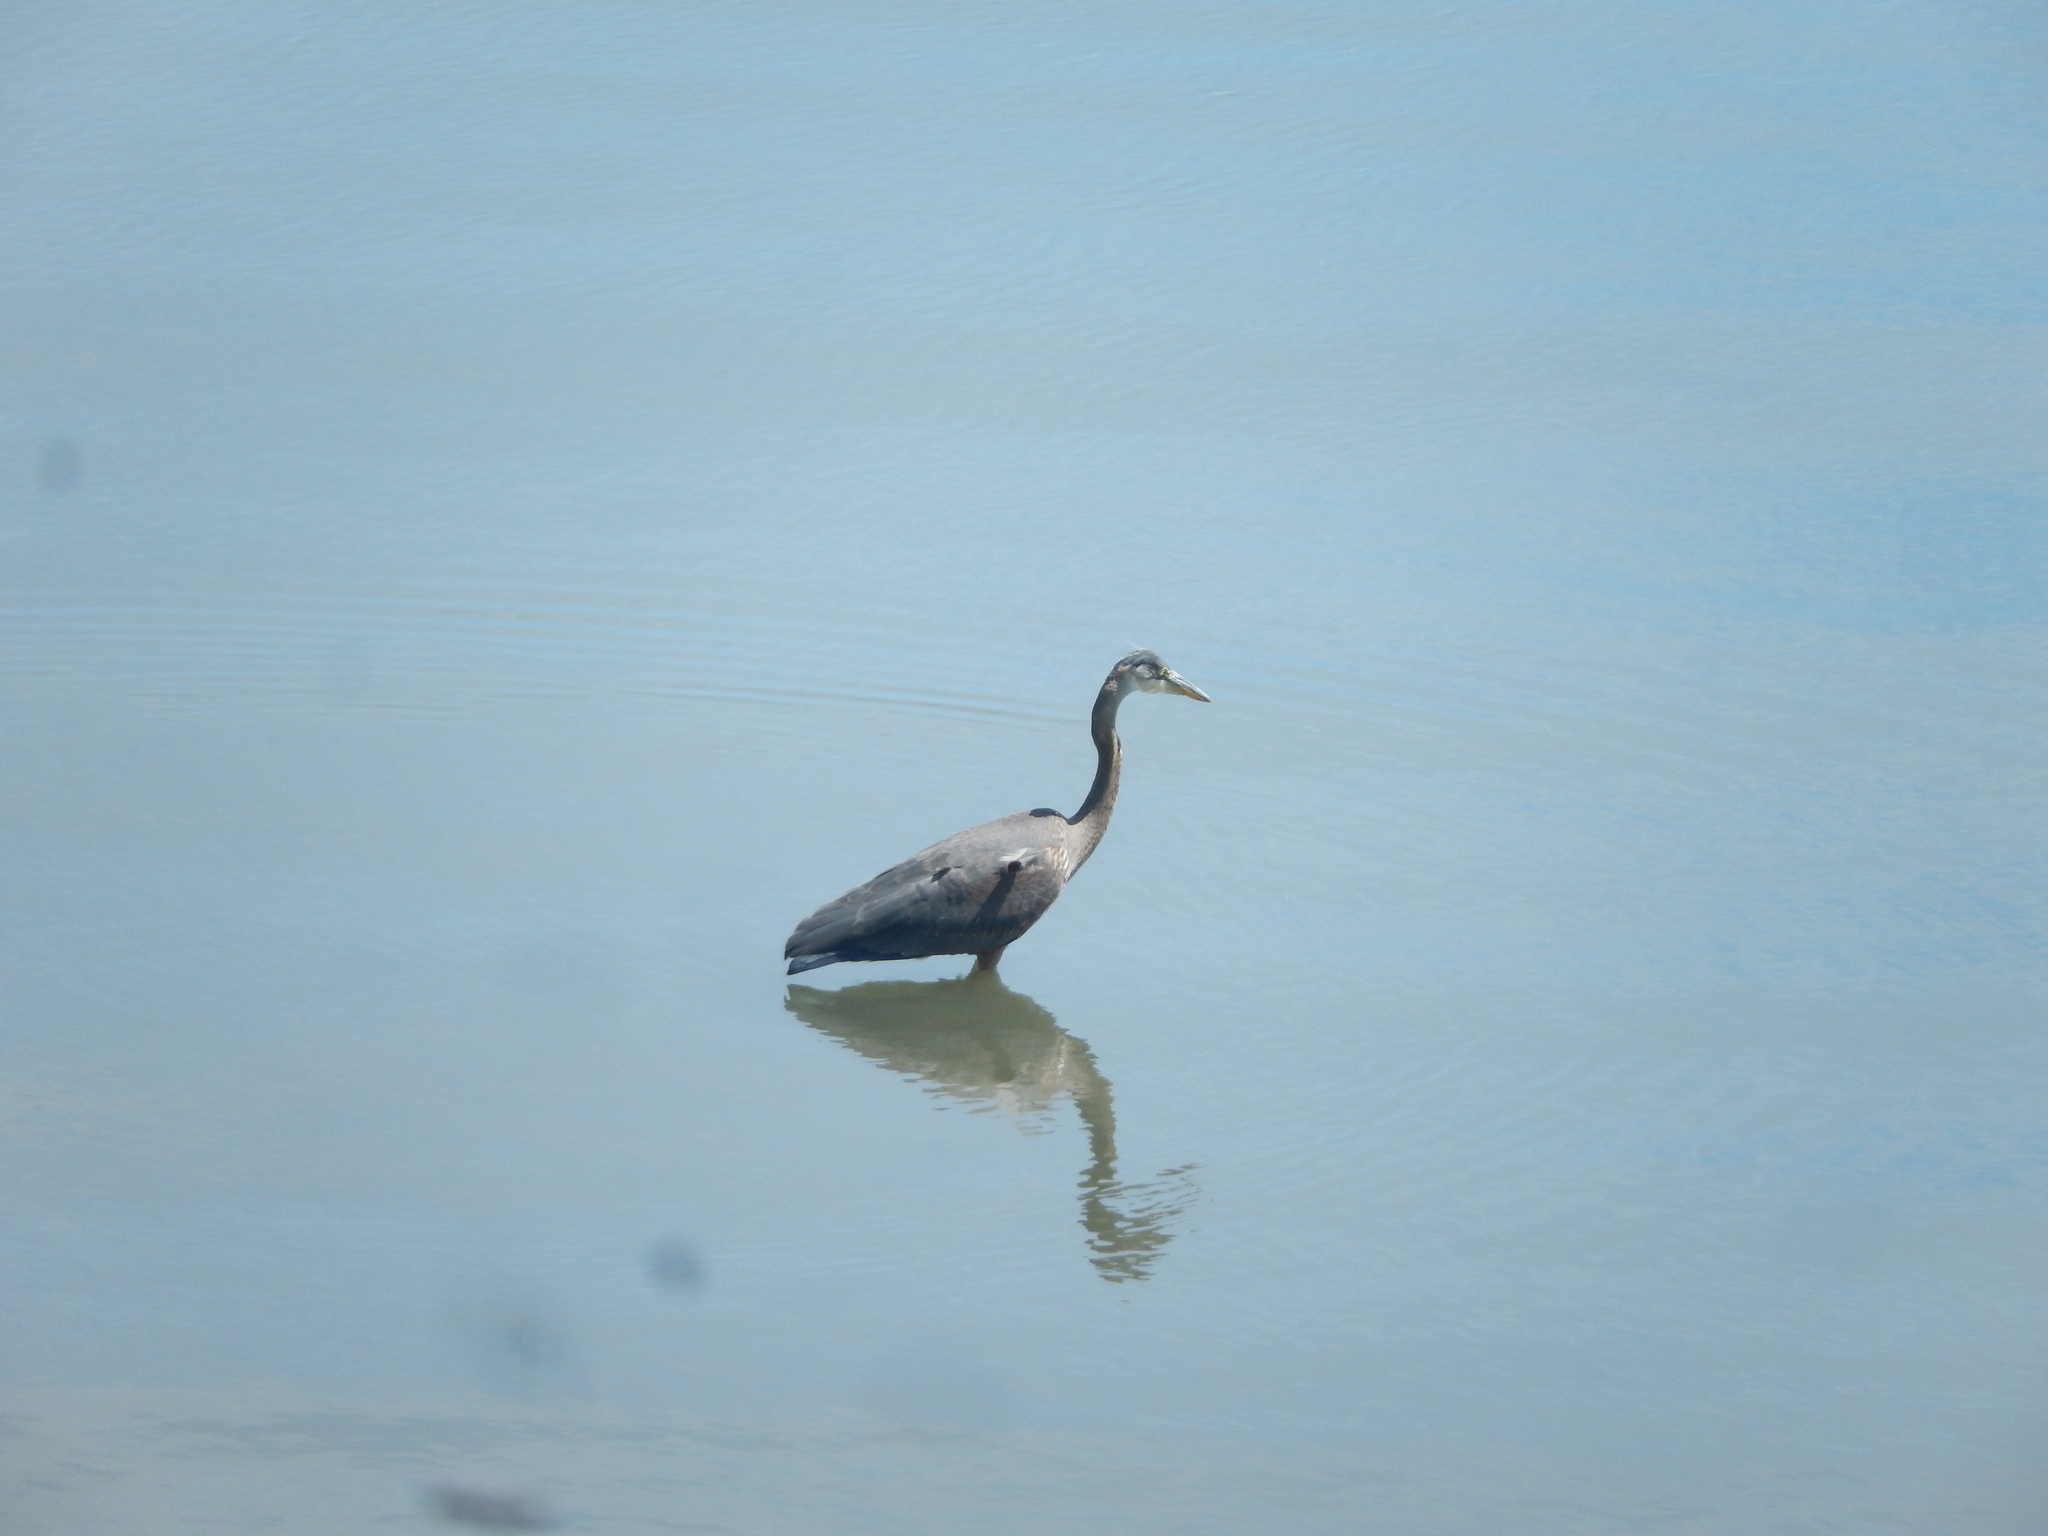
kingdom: Animalia
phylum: Chordata
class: Aves
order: Pelecaniformes
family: Ardeidae
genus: Ardea
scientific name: Ardea herodias
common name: Great blue heron
